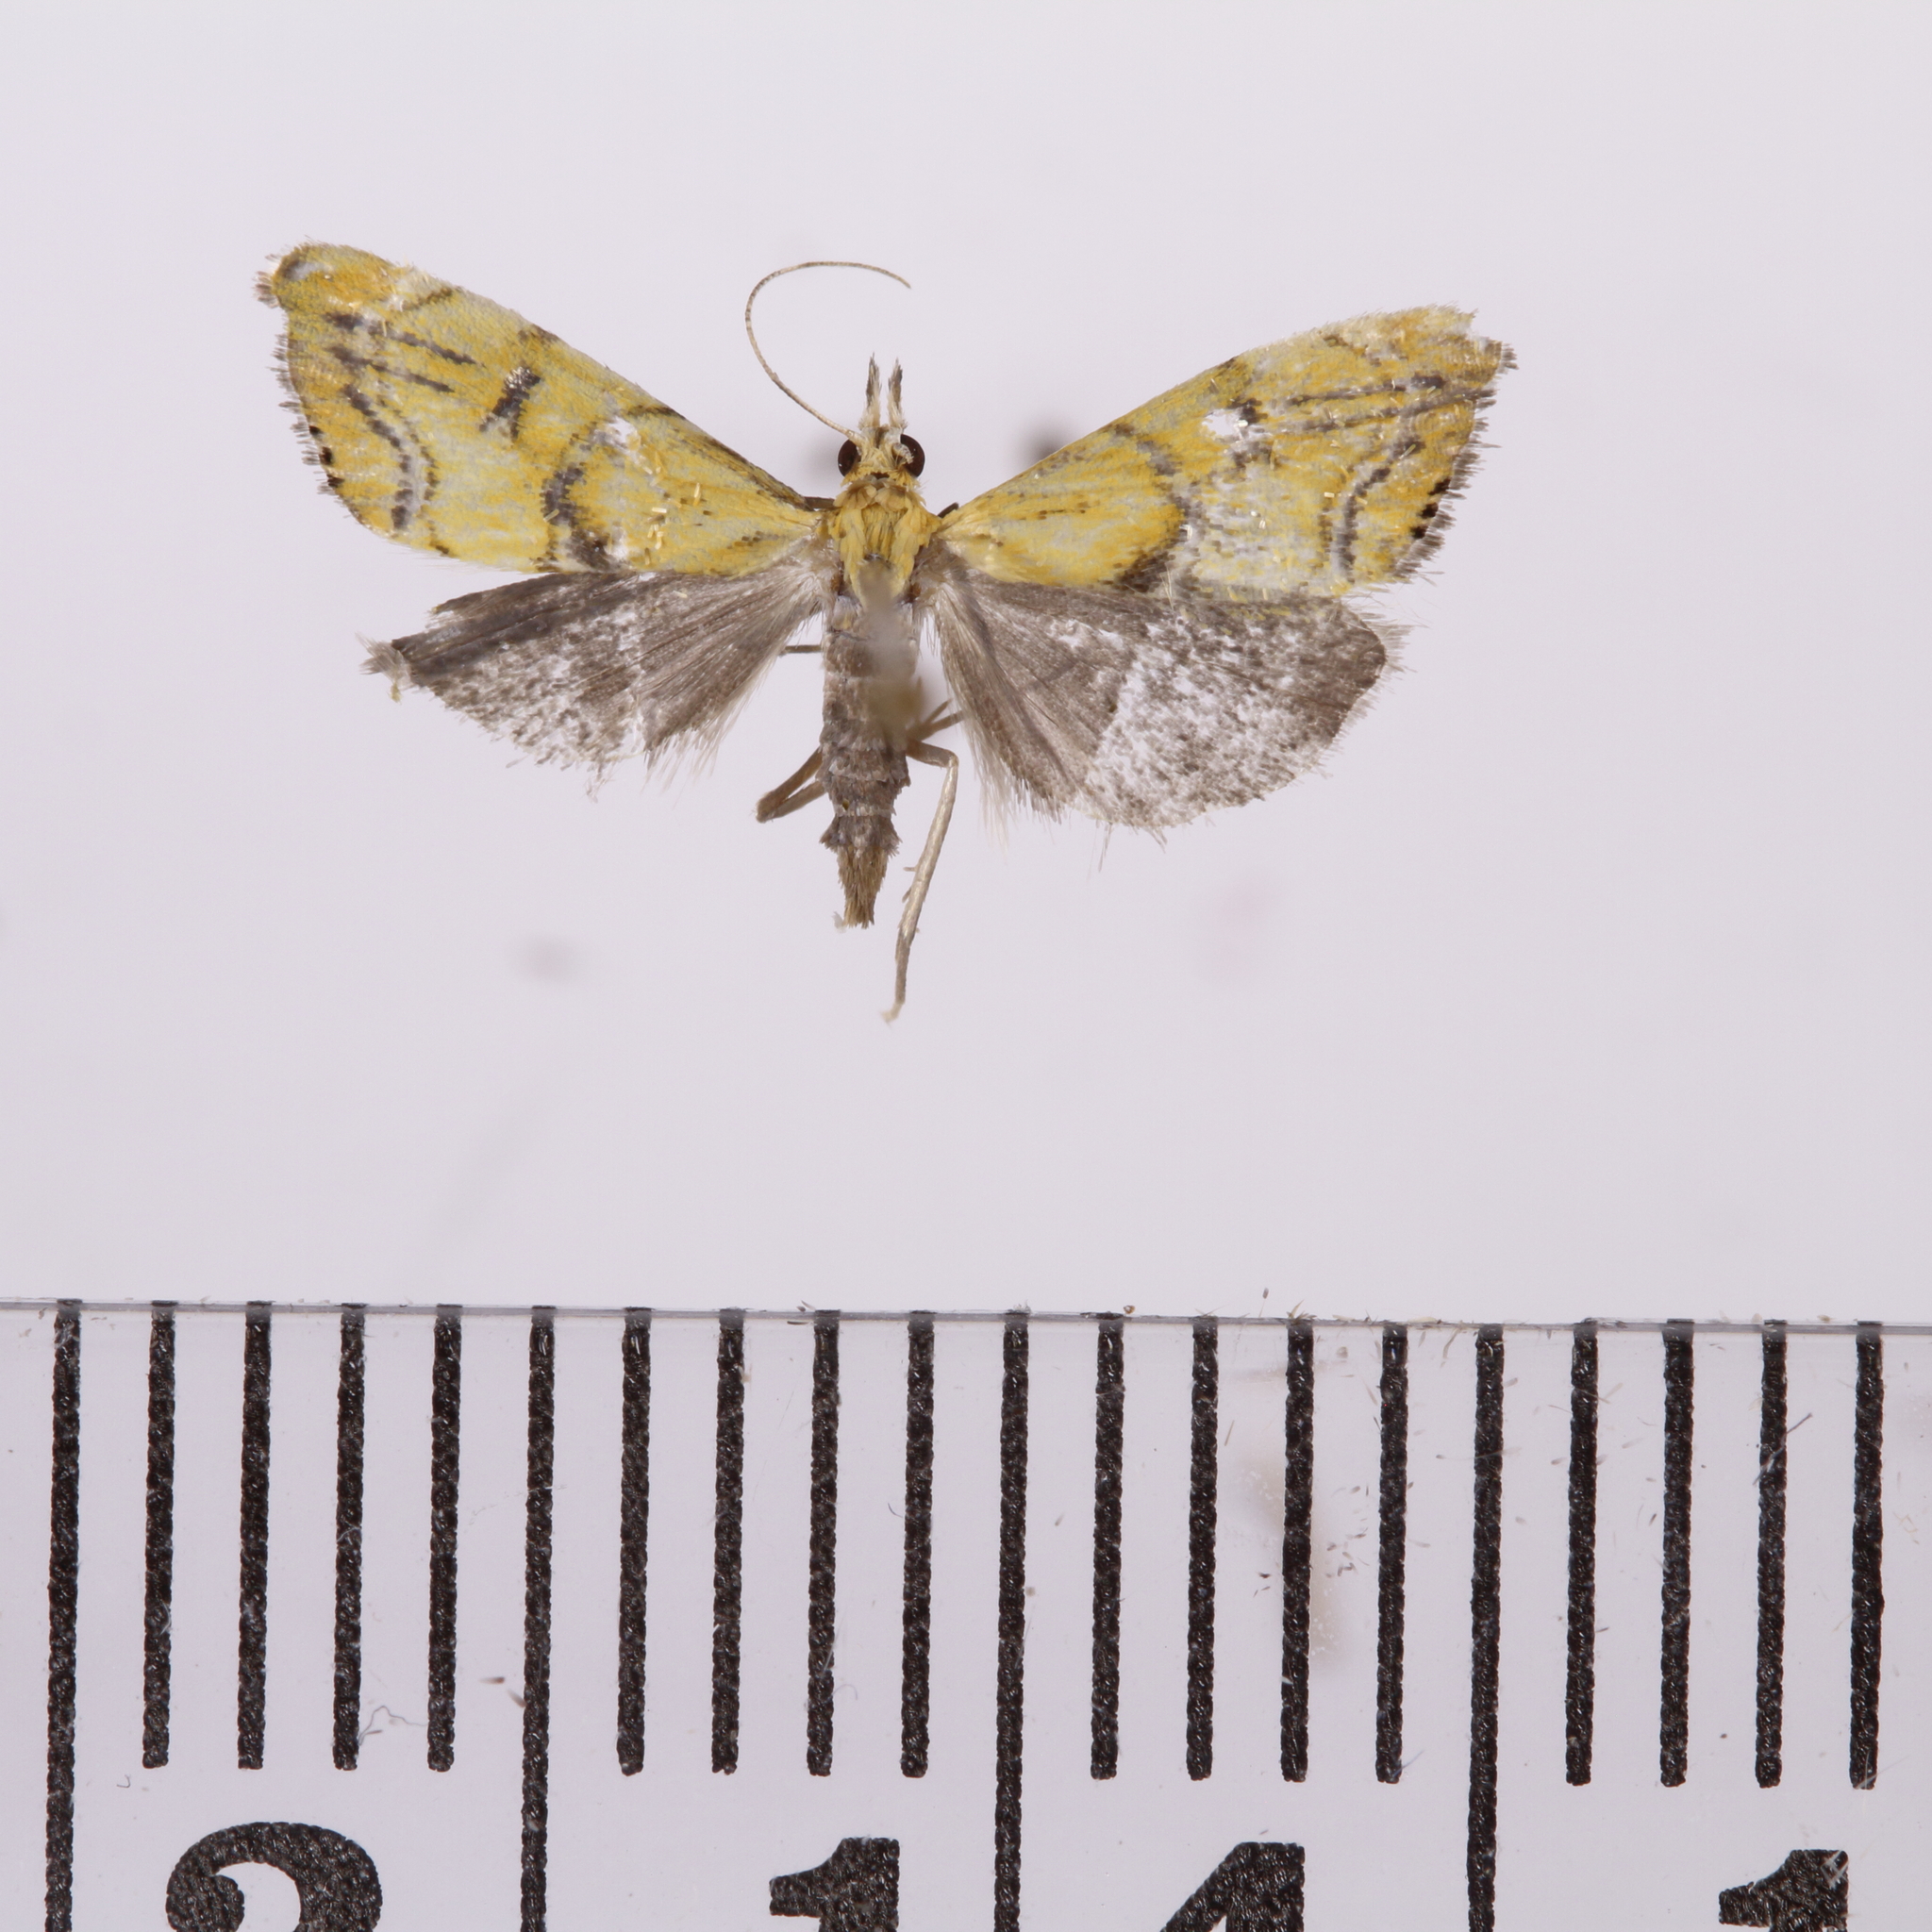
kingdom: Animalia
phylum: Arthropoda
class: Insecta
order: Lepidoptera
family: Crambidae
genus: Glaucocharis
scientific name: Glaucocharis auriscriptella
